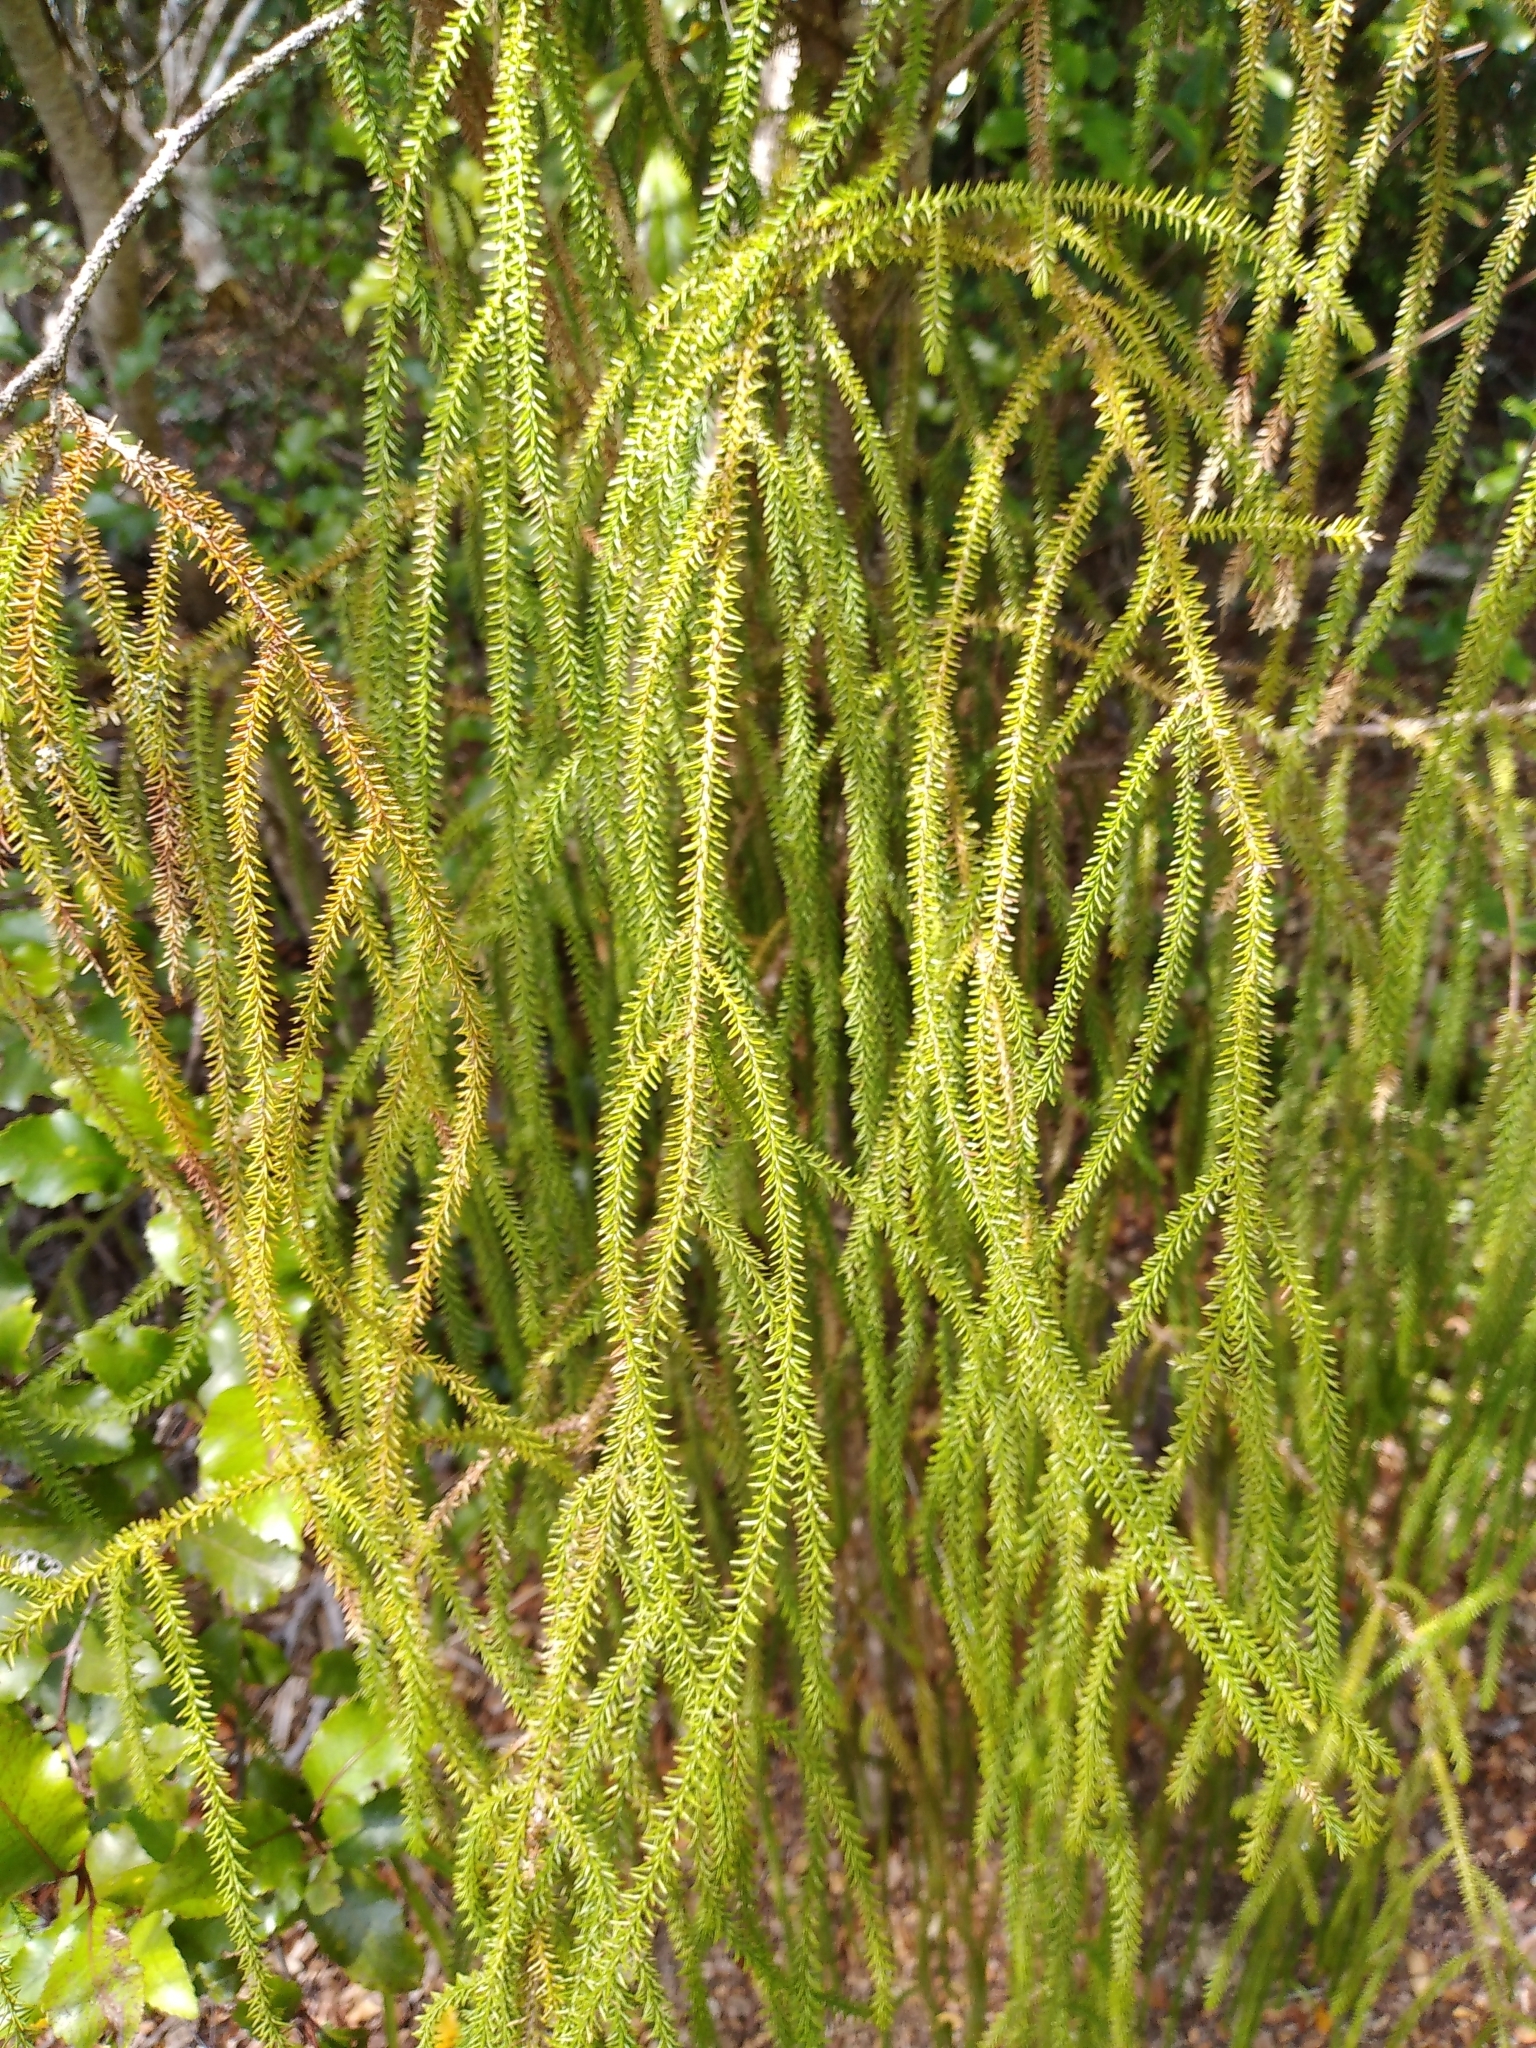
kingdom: Plantae
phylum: Tracheophyta
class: Pinopsida
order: Pinales
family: Podocarpaceae
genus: Dacrydium
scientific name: Dacrydium cupressinum
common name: Red pine
